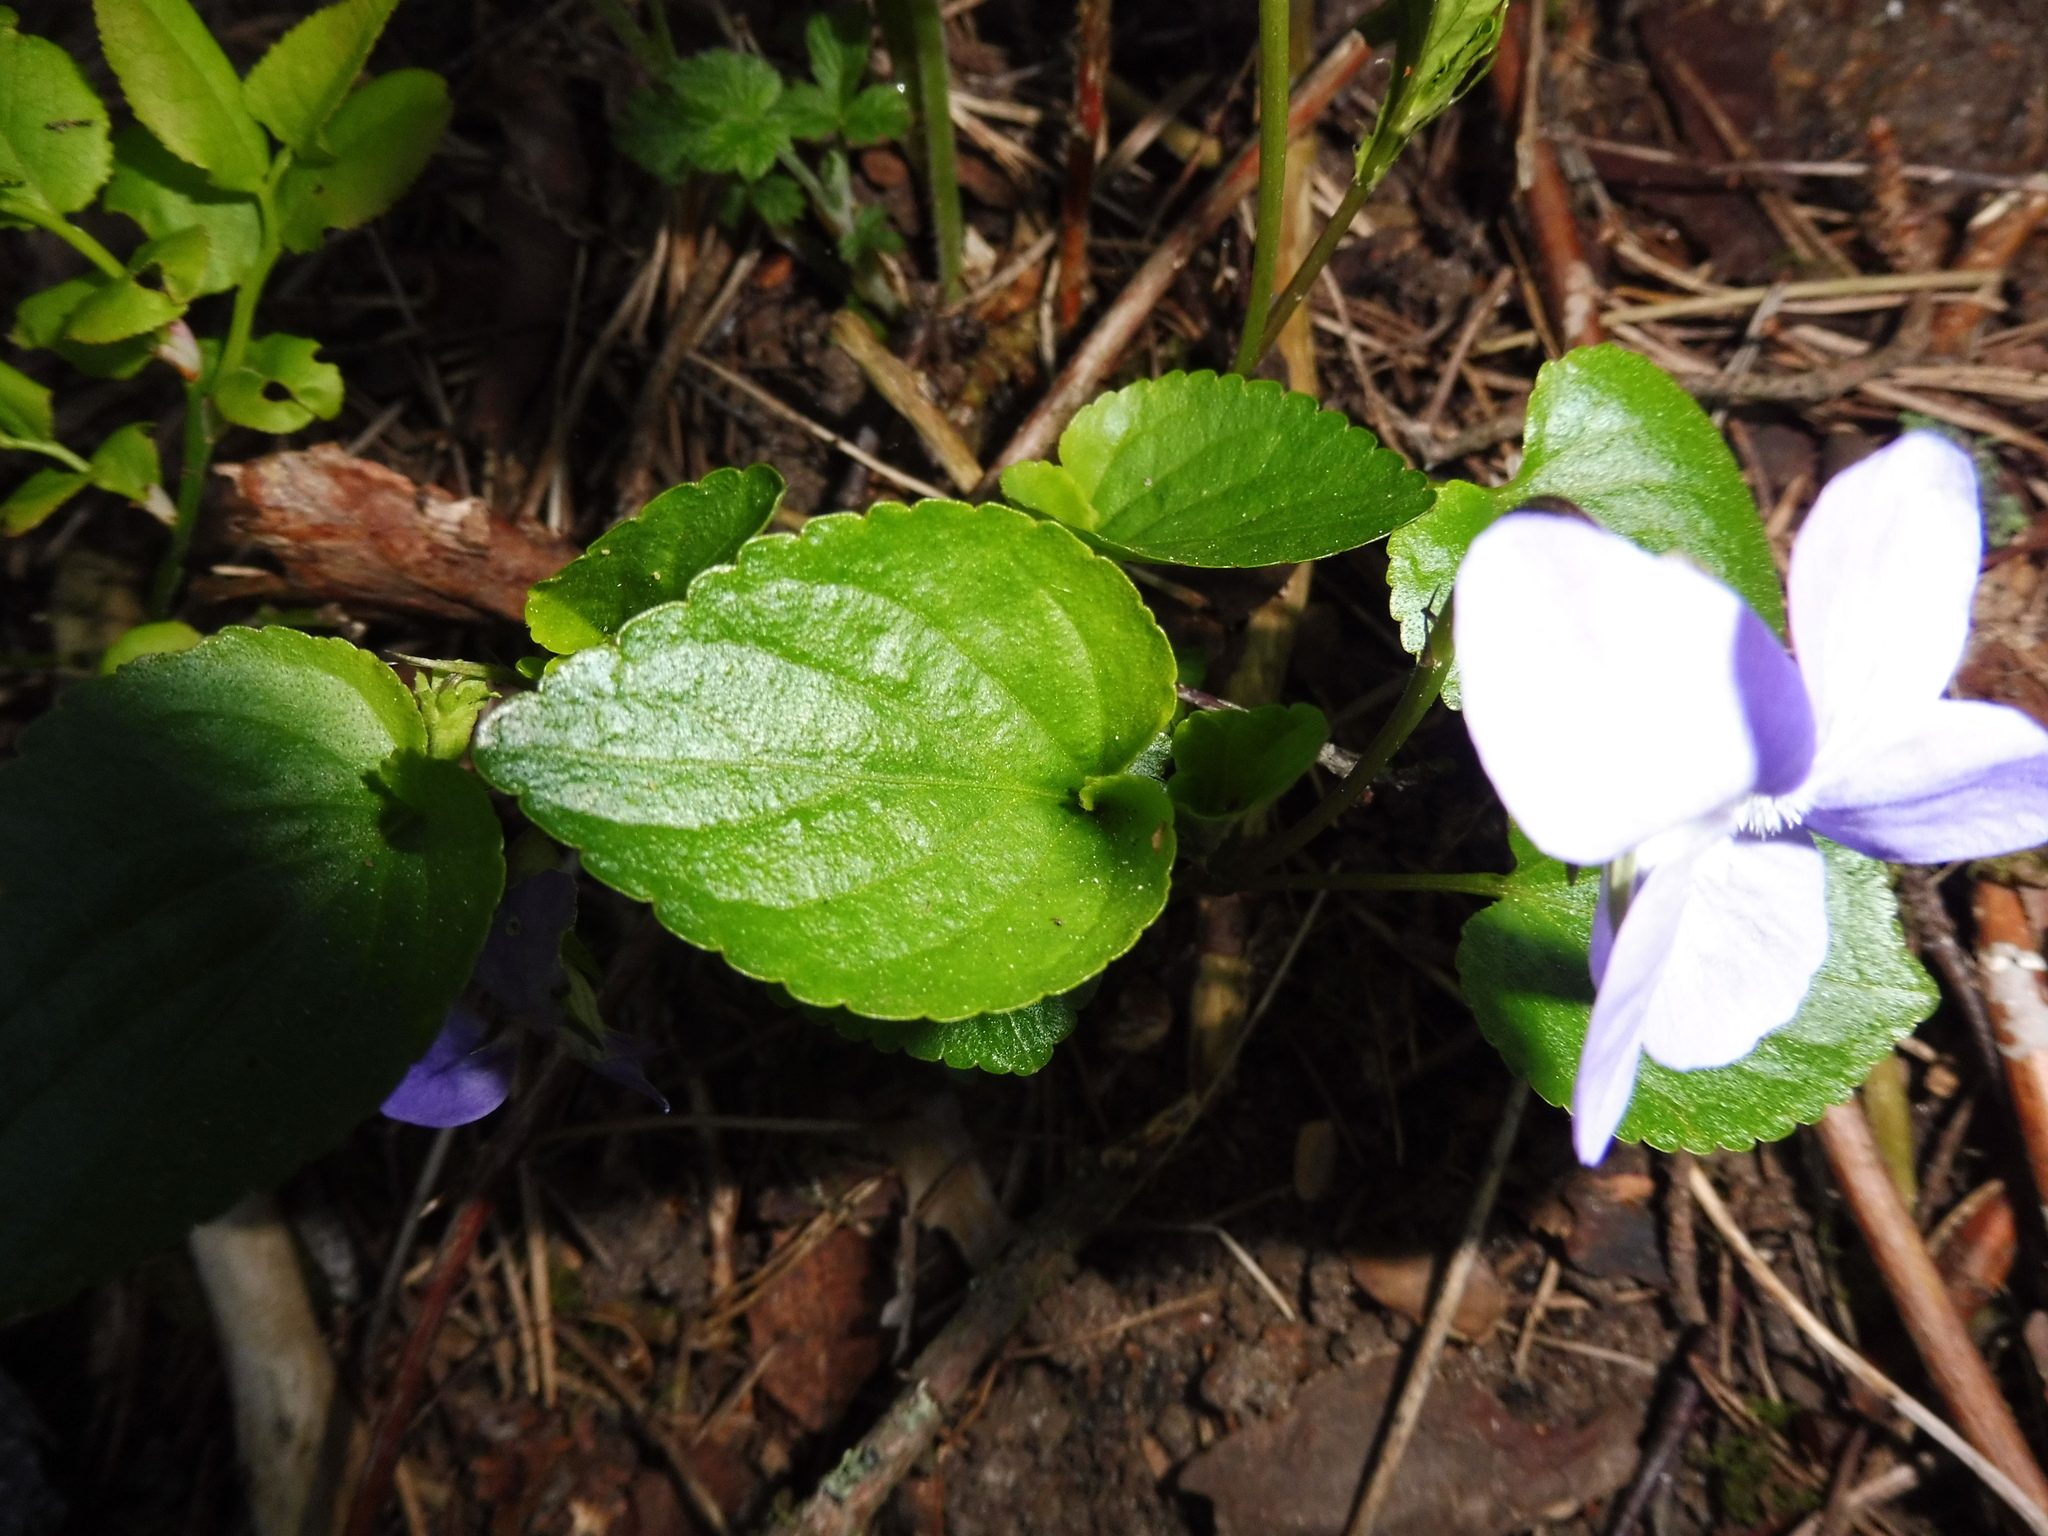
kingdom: Plantae
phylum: Tracheophyta
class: Magnoliopsida
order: Malpighiales
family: Violaceae
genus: Viola
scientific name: Viola riviniana
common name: Common dog-violet
